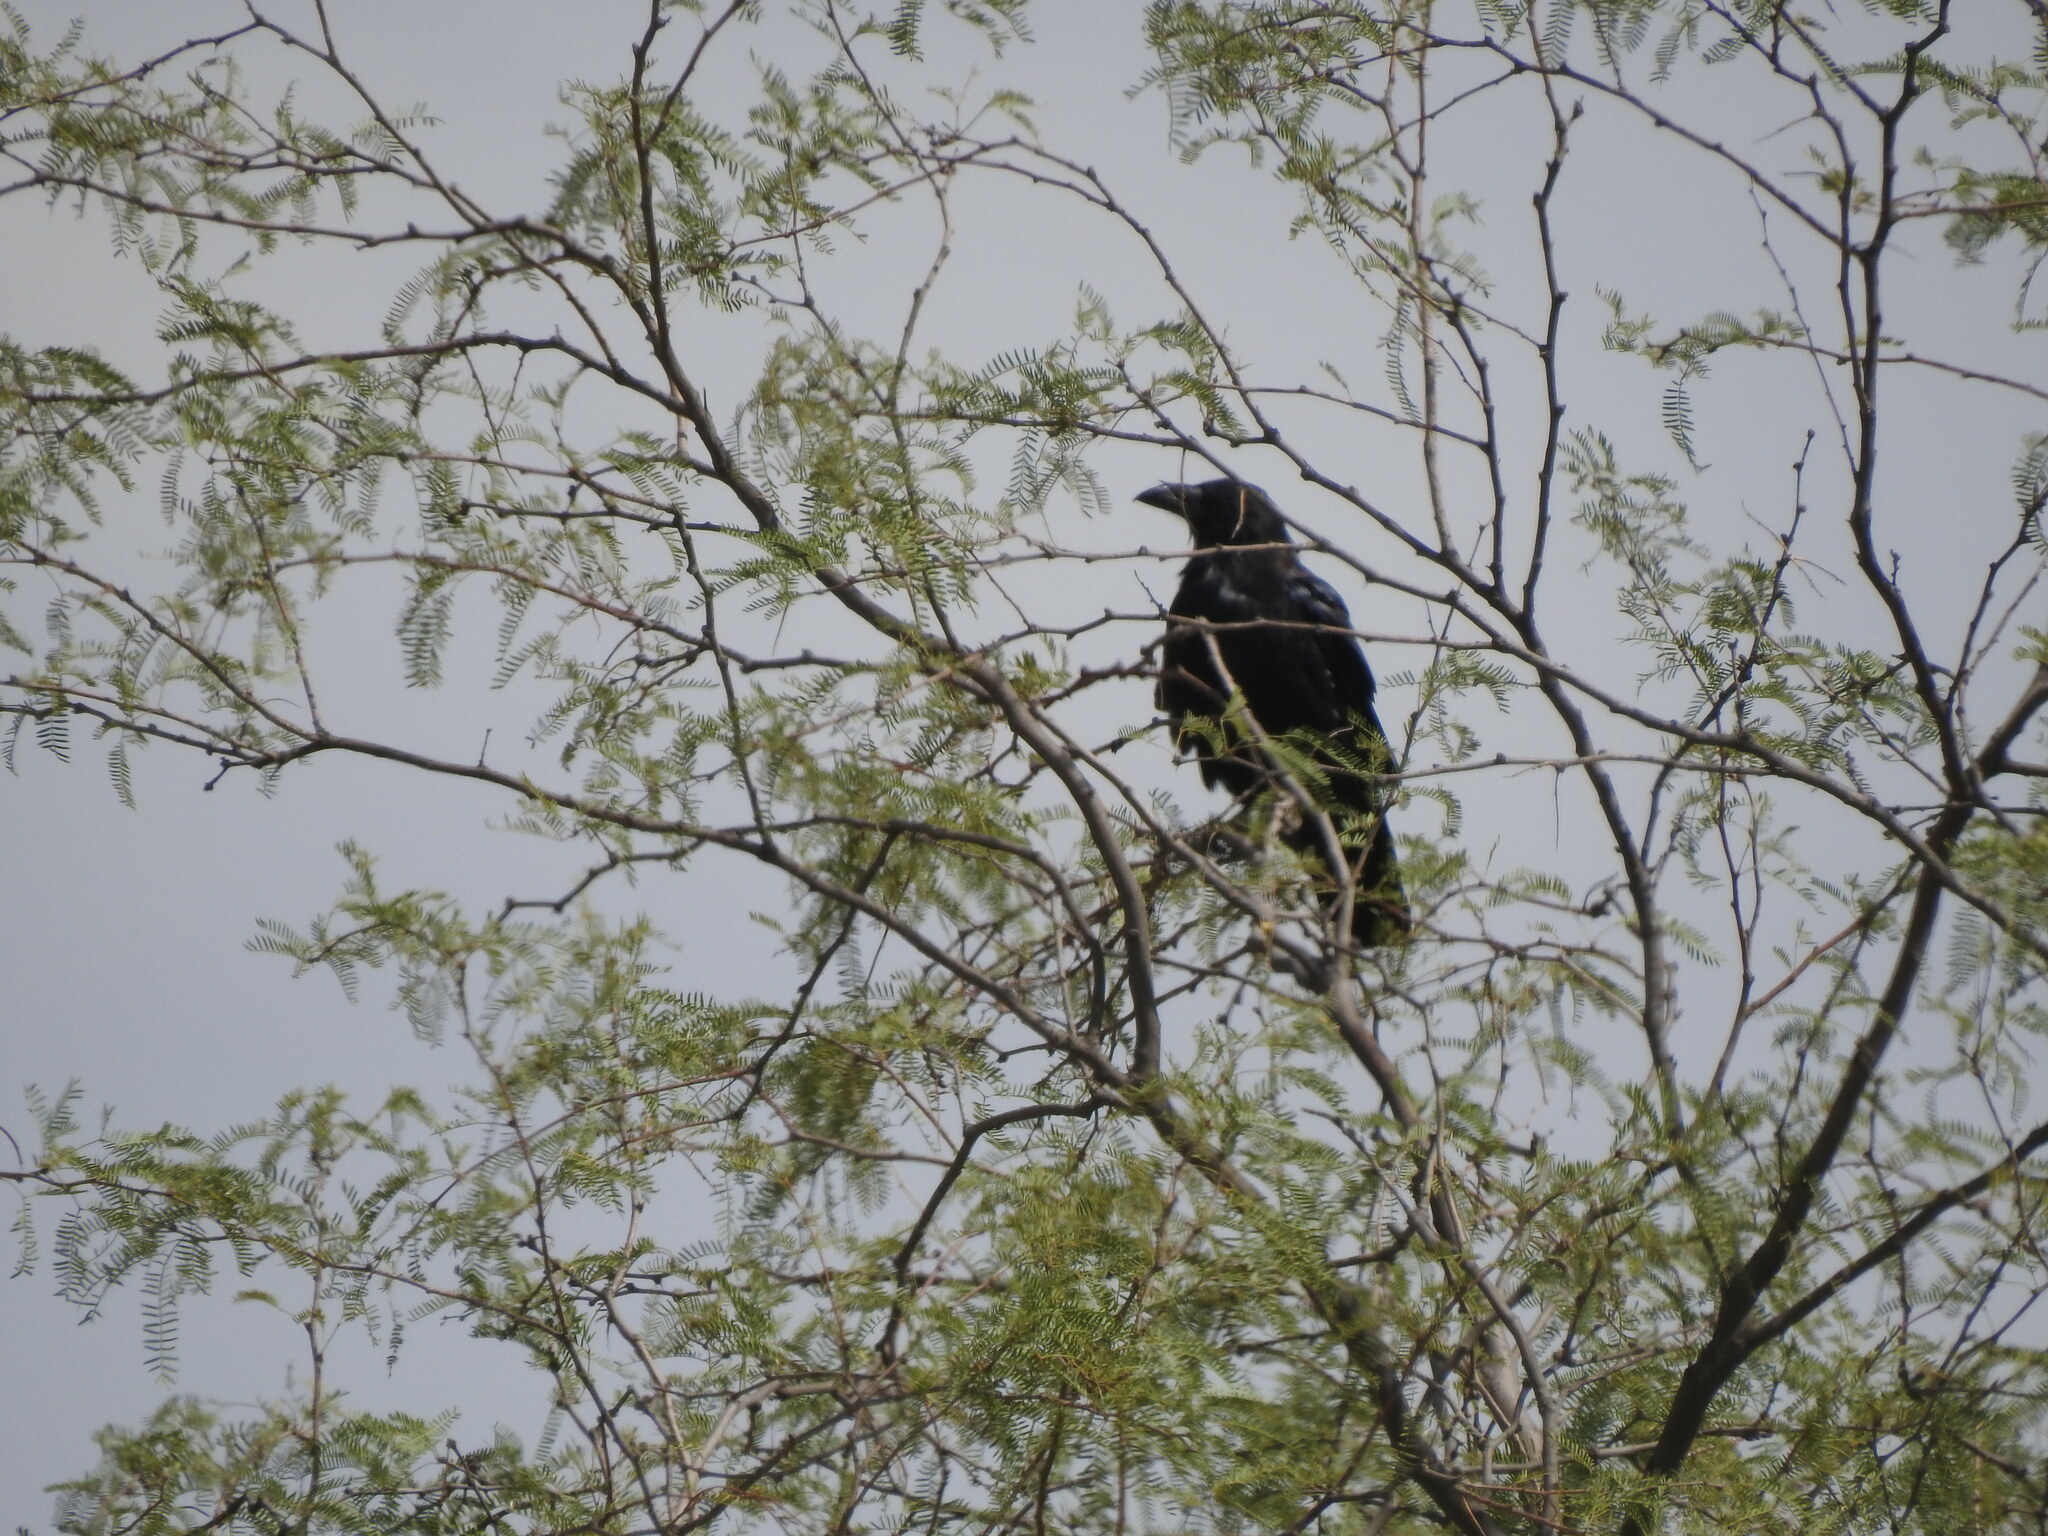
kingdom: Animalia
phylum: Chordata
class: Aves
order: Passeriformes
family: Corvidae
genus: Corvus
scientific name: Corvus cryptoleucus
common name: Chihuahuan raven
